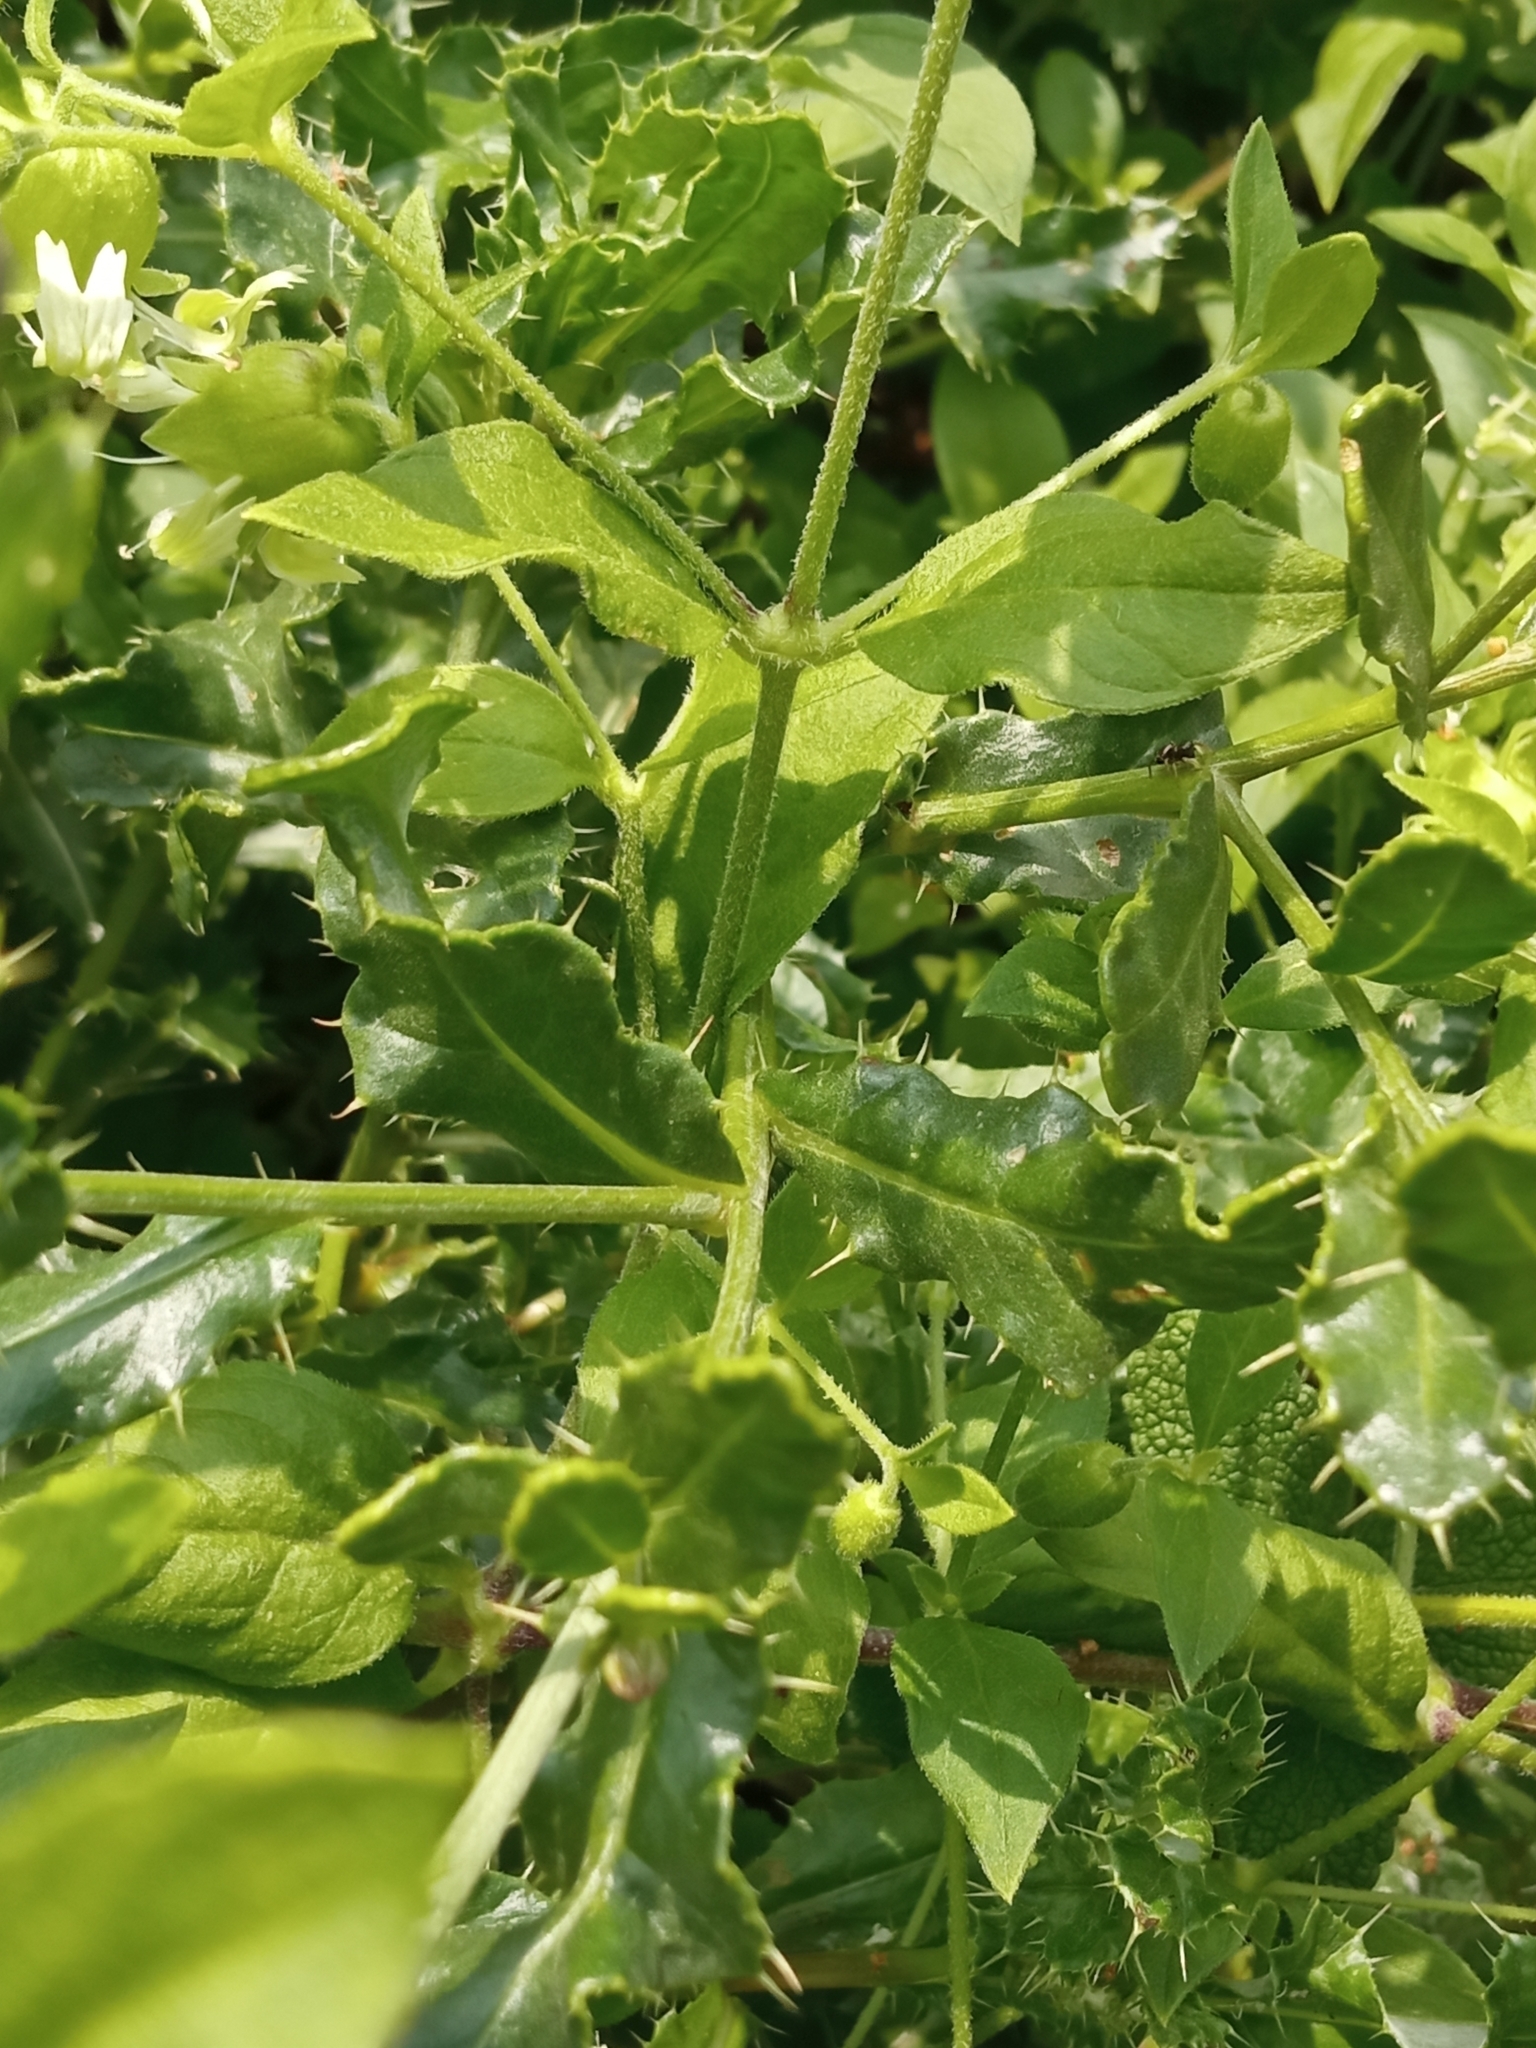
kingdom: Plantae
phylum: Tracheophyta
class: Magnoliopsida
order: Asterales
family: Asteraceae
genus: Cirsium
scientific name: Cirsium arvense
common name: Creeping thistle
